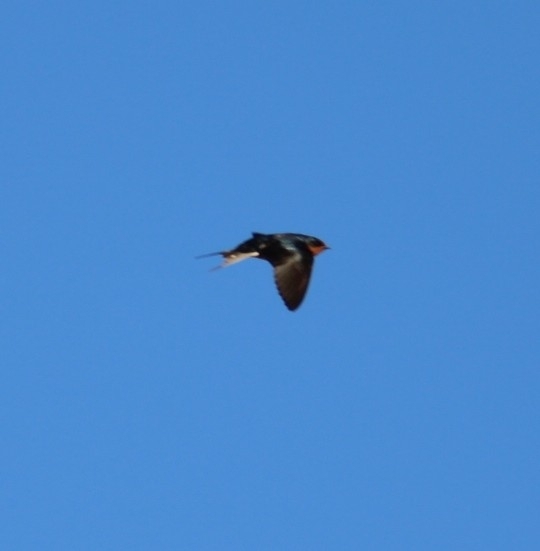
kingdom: Animalia
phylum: Chordata
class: Aves
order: Passeriformes
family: Hirundinidae
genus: Hirundo
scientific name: Hirundo rustica
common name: Barn swallow
